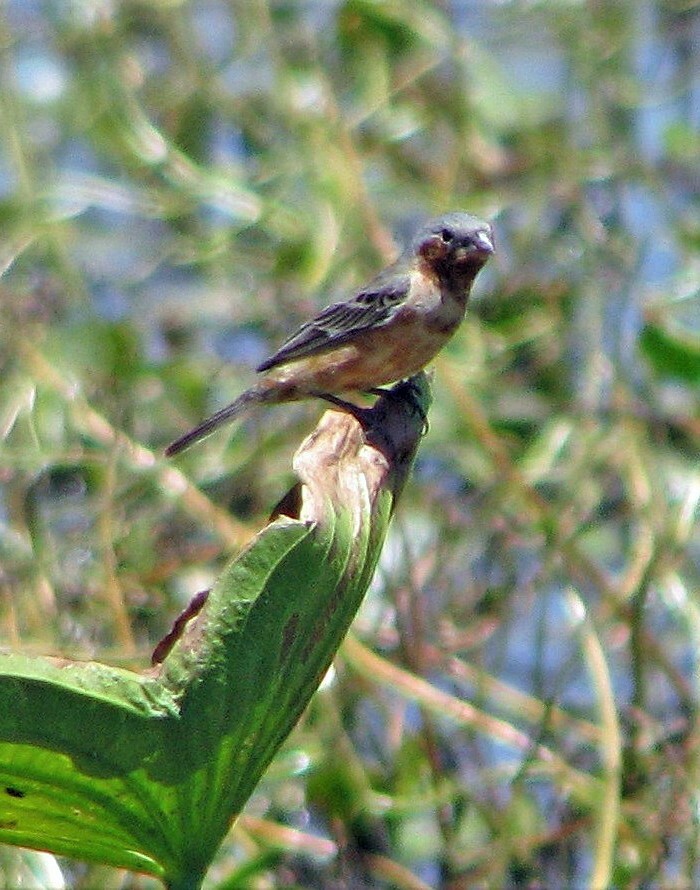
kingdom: Animalia
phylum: Chordata
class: Aves
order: Passeriformes
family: Thraupidae
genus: Sporophila
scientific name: Sporophila hypochroma
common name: Rufous-rumped seedeater
